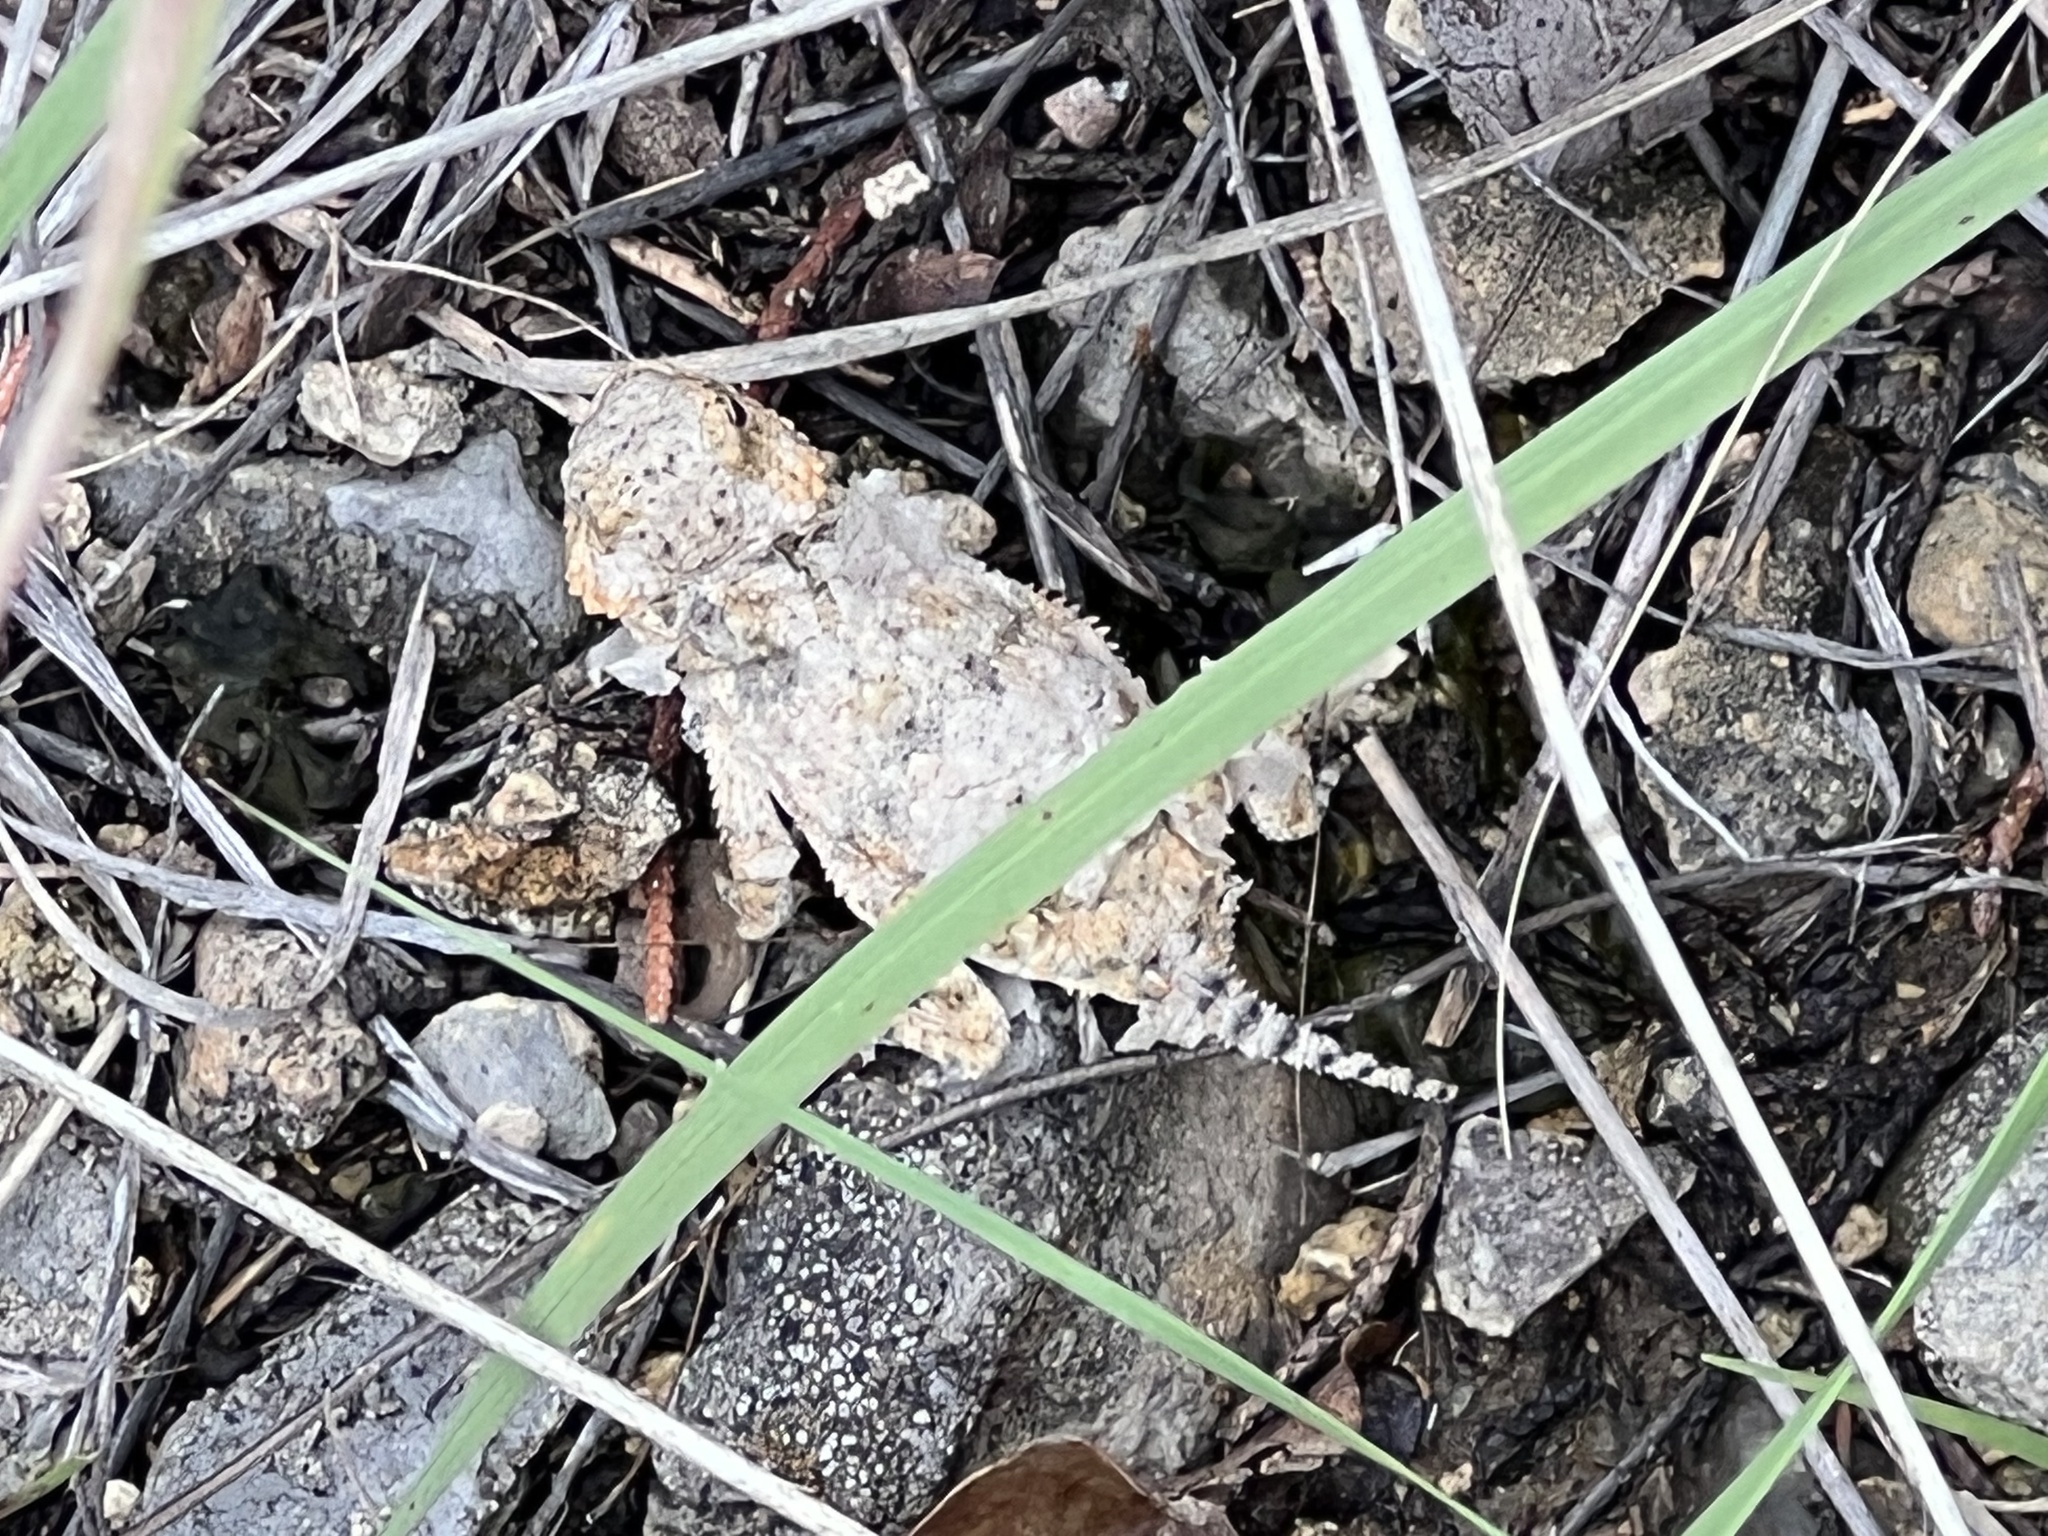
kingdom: Animalia
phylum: Chordata
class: Squamata
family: Phrynosomatidae
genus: Phrynosoma
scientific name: Phrynosoma hernandesi
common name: Greater short-horned lizard
